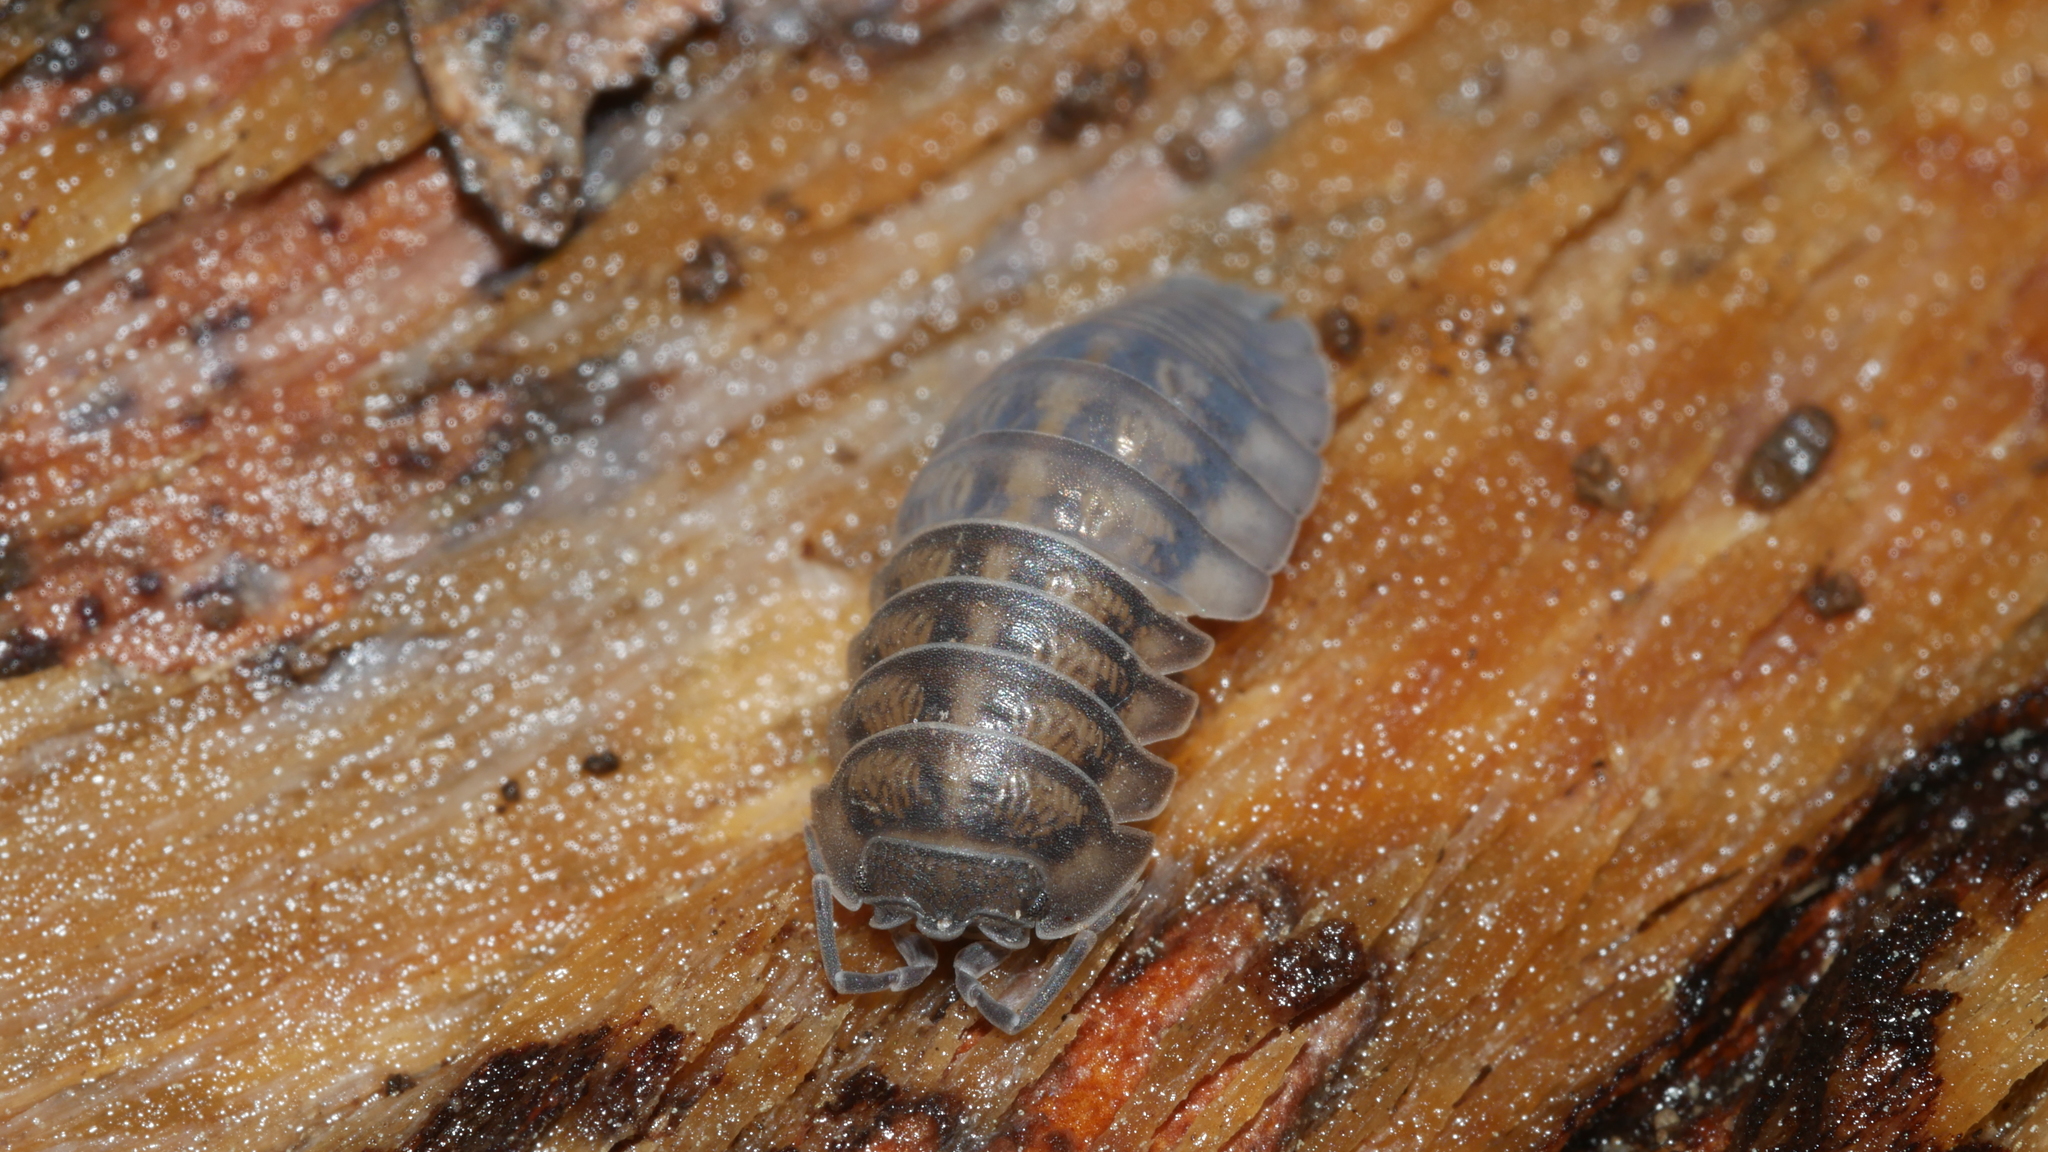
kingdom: Animalia
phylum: Arthropoda
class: Malacostraca
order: Isopoda
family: Armadillidiidae
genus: Armadillidium
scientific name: Armadillidium nasatum
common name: Isopod
